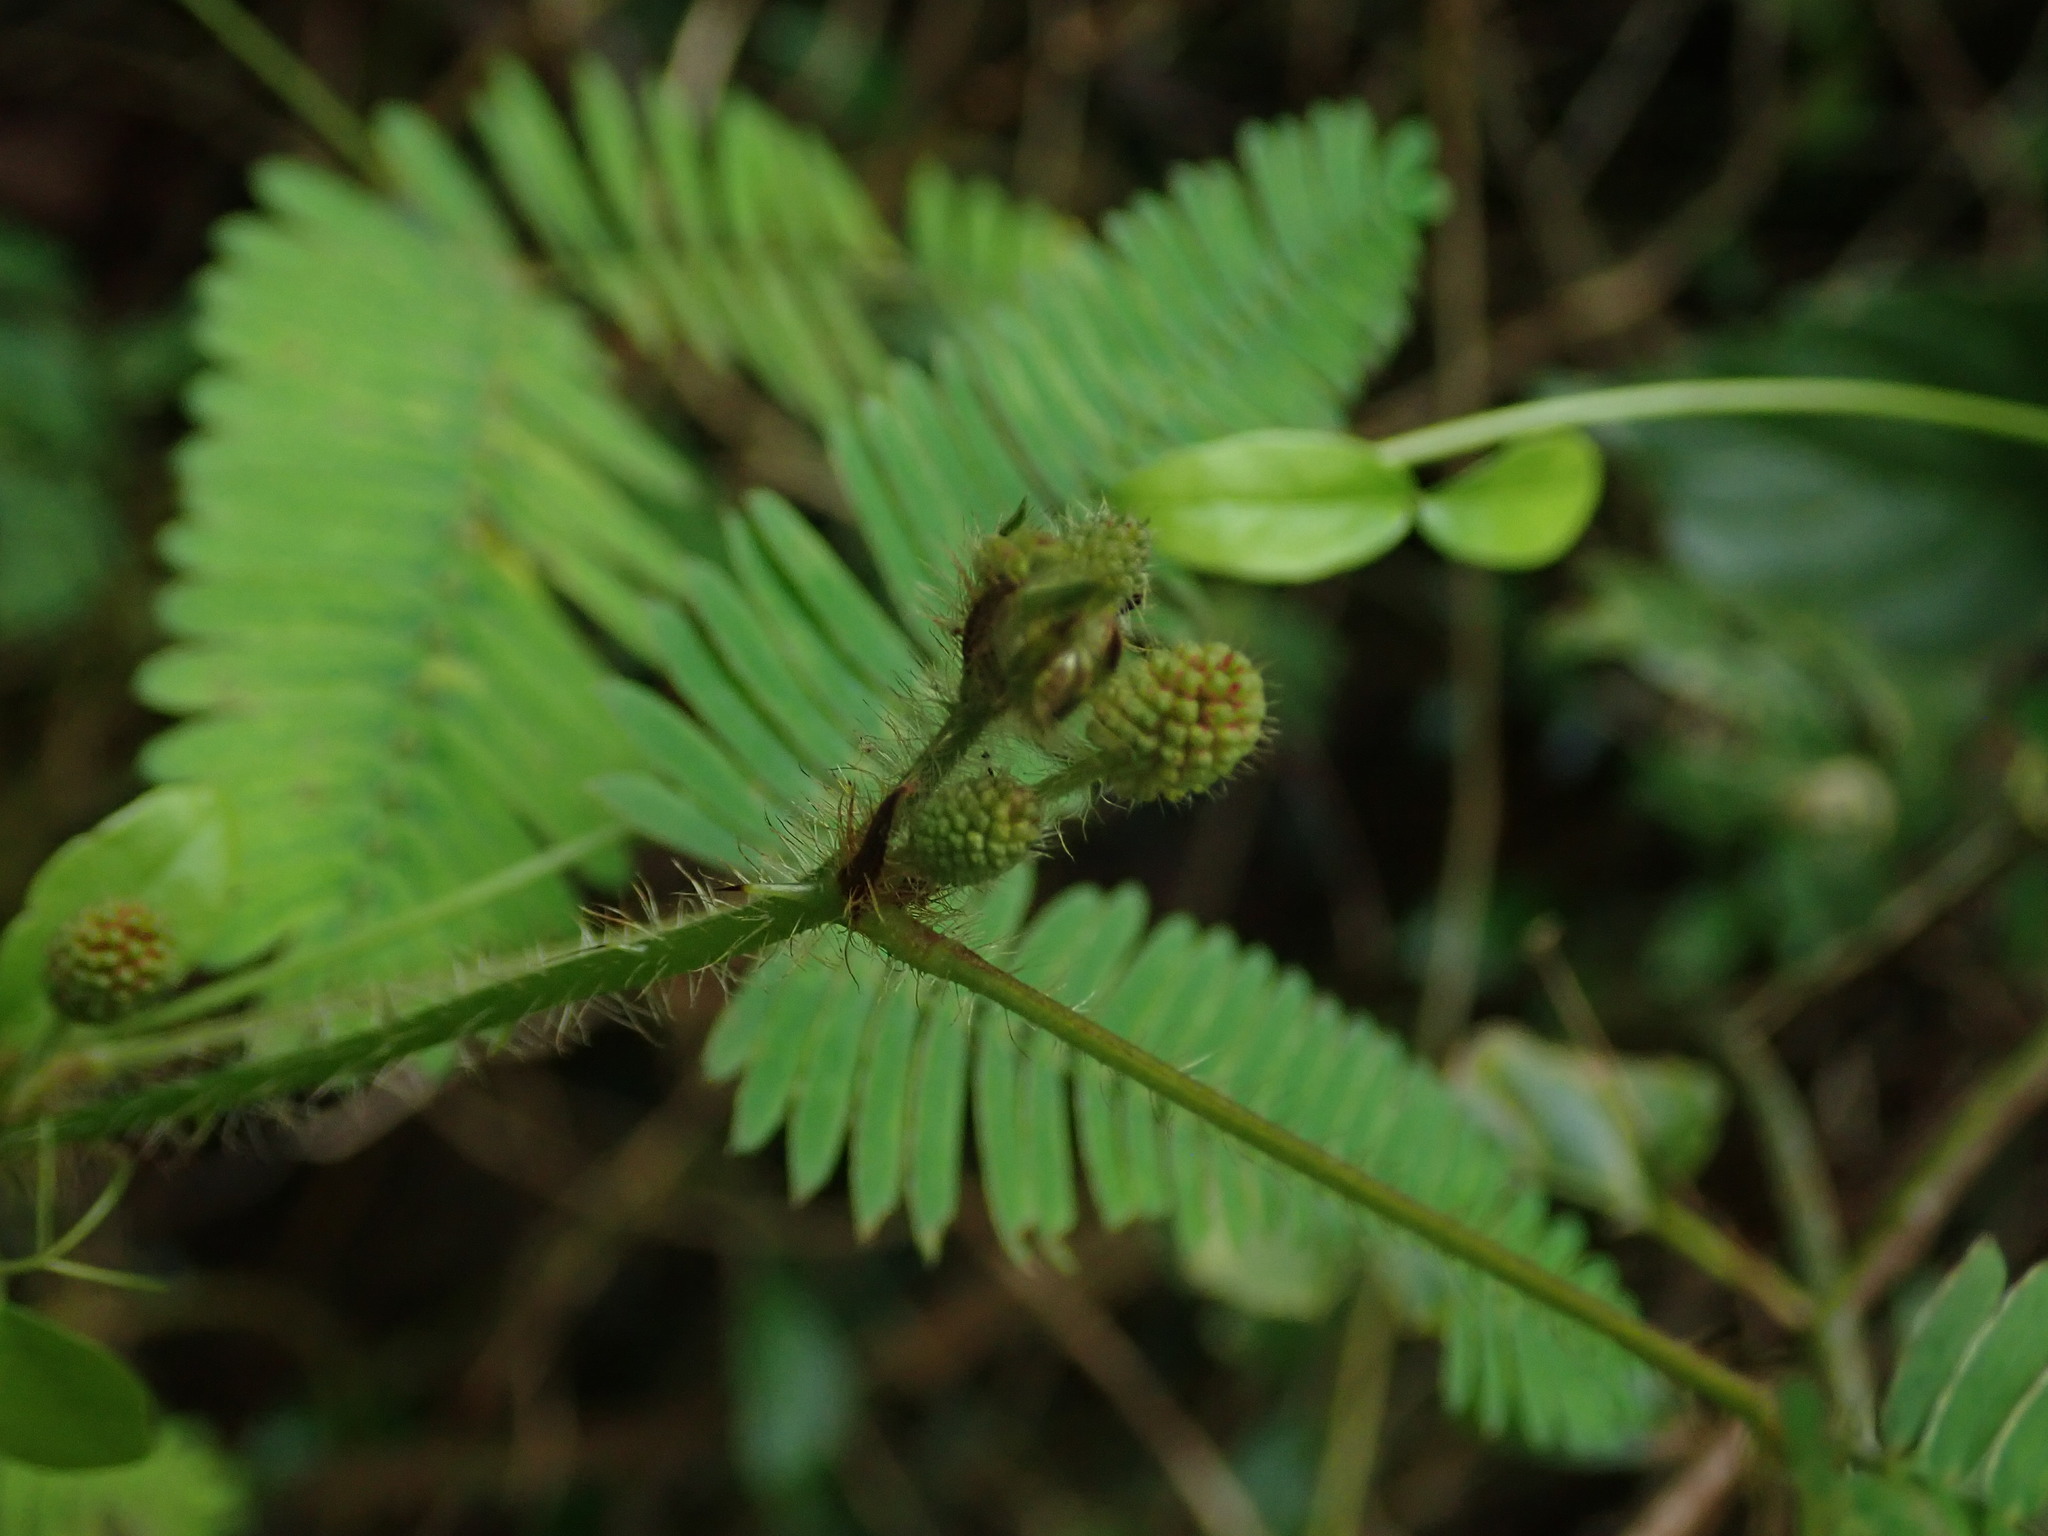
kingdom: Plantae
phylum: Tracheophyta
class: Magnoliopsida
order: Fabales
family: Fabaceae
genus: Mimosa
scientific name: Mimosa pudica
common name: Sensitive plant
